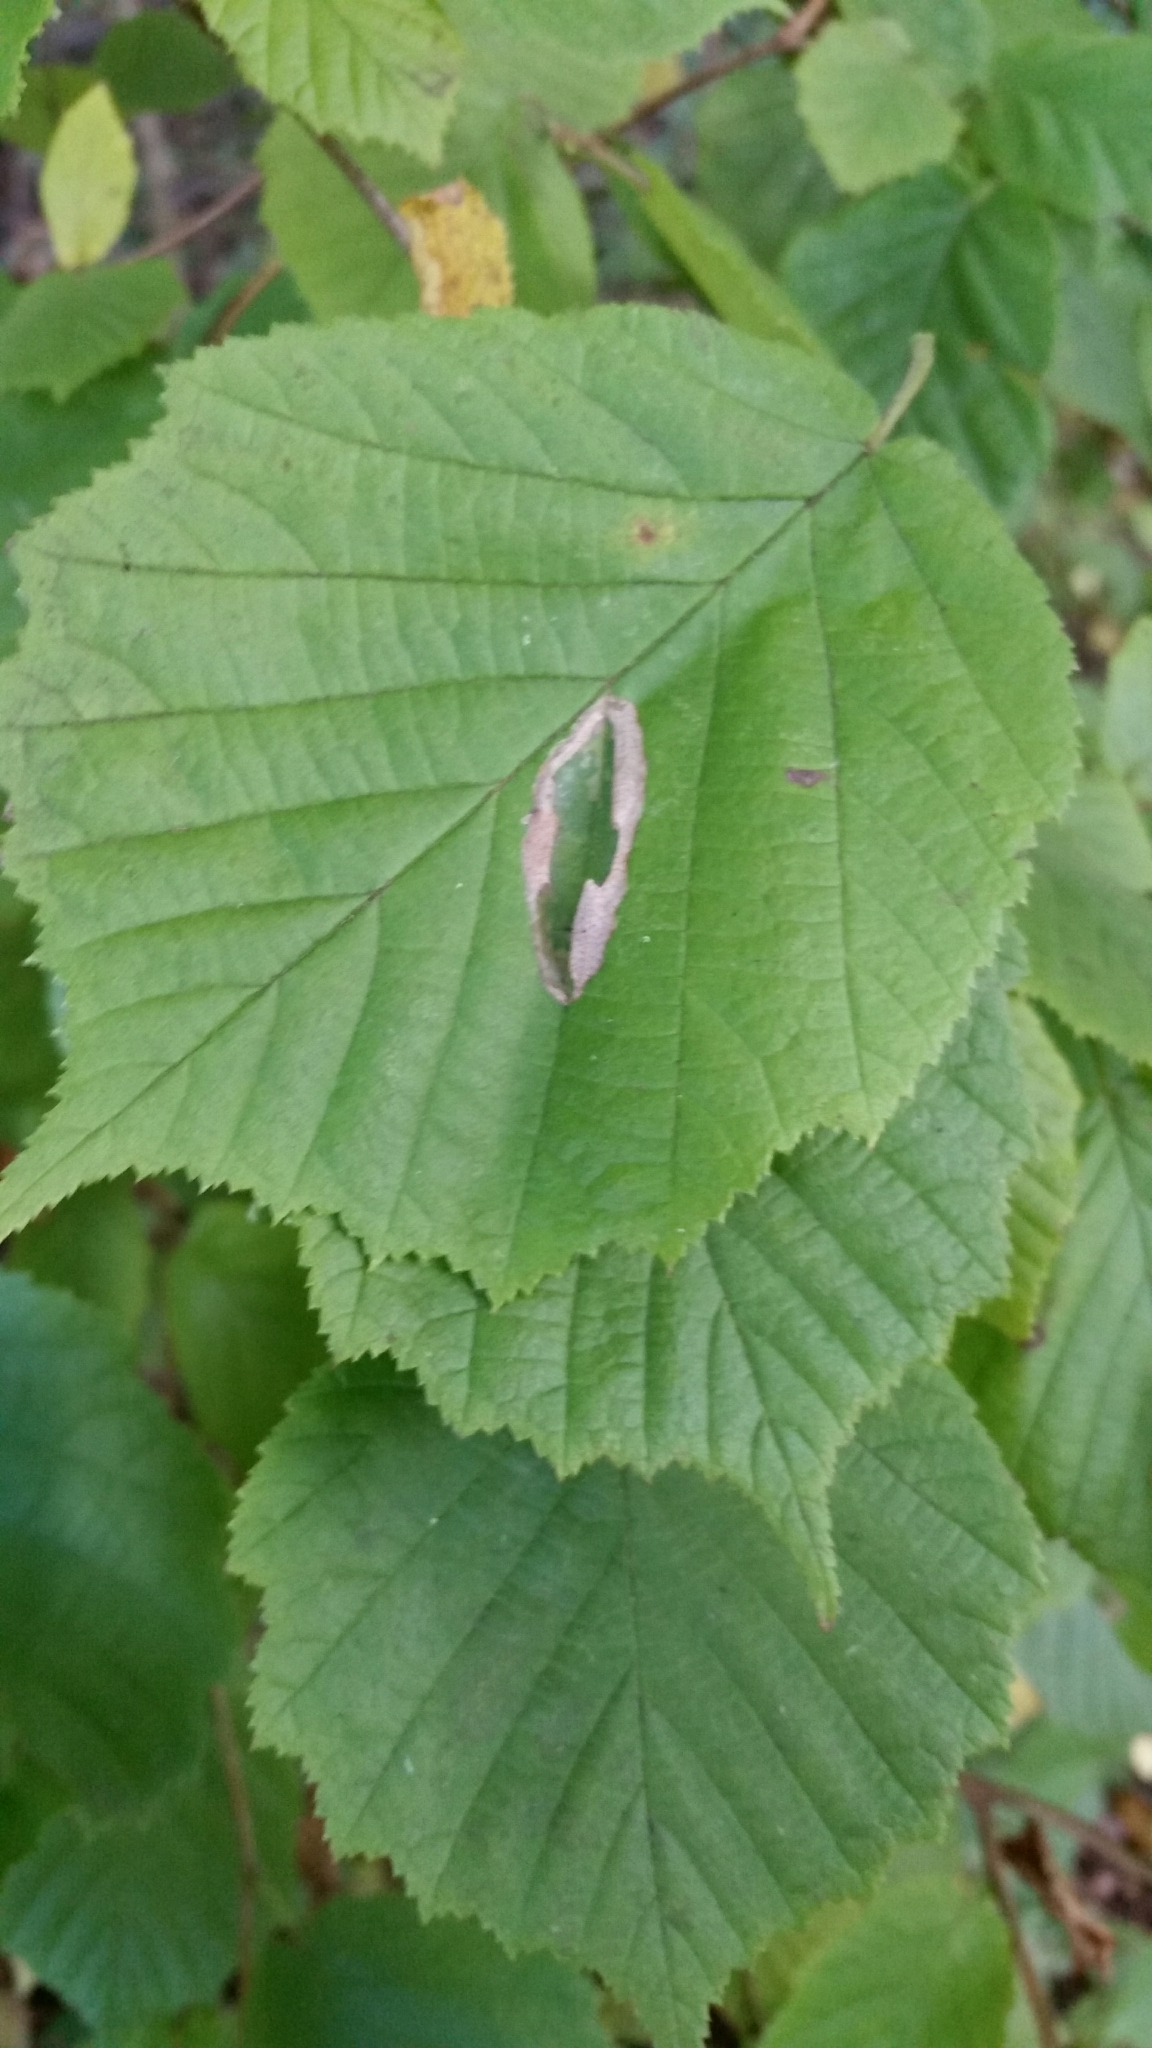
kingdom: Animalia
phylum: Arthropoda
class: Insecta
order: Lepidoptera
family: Gracillariidae
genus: Phyllonorycter
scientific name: Phyllonorycter coryli
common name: Nut-leaf blister moth
